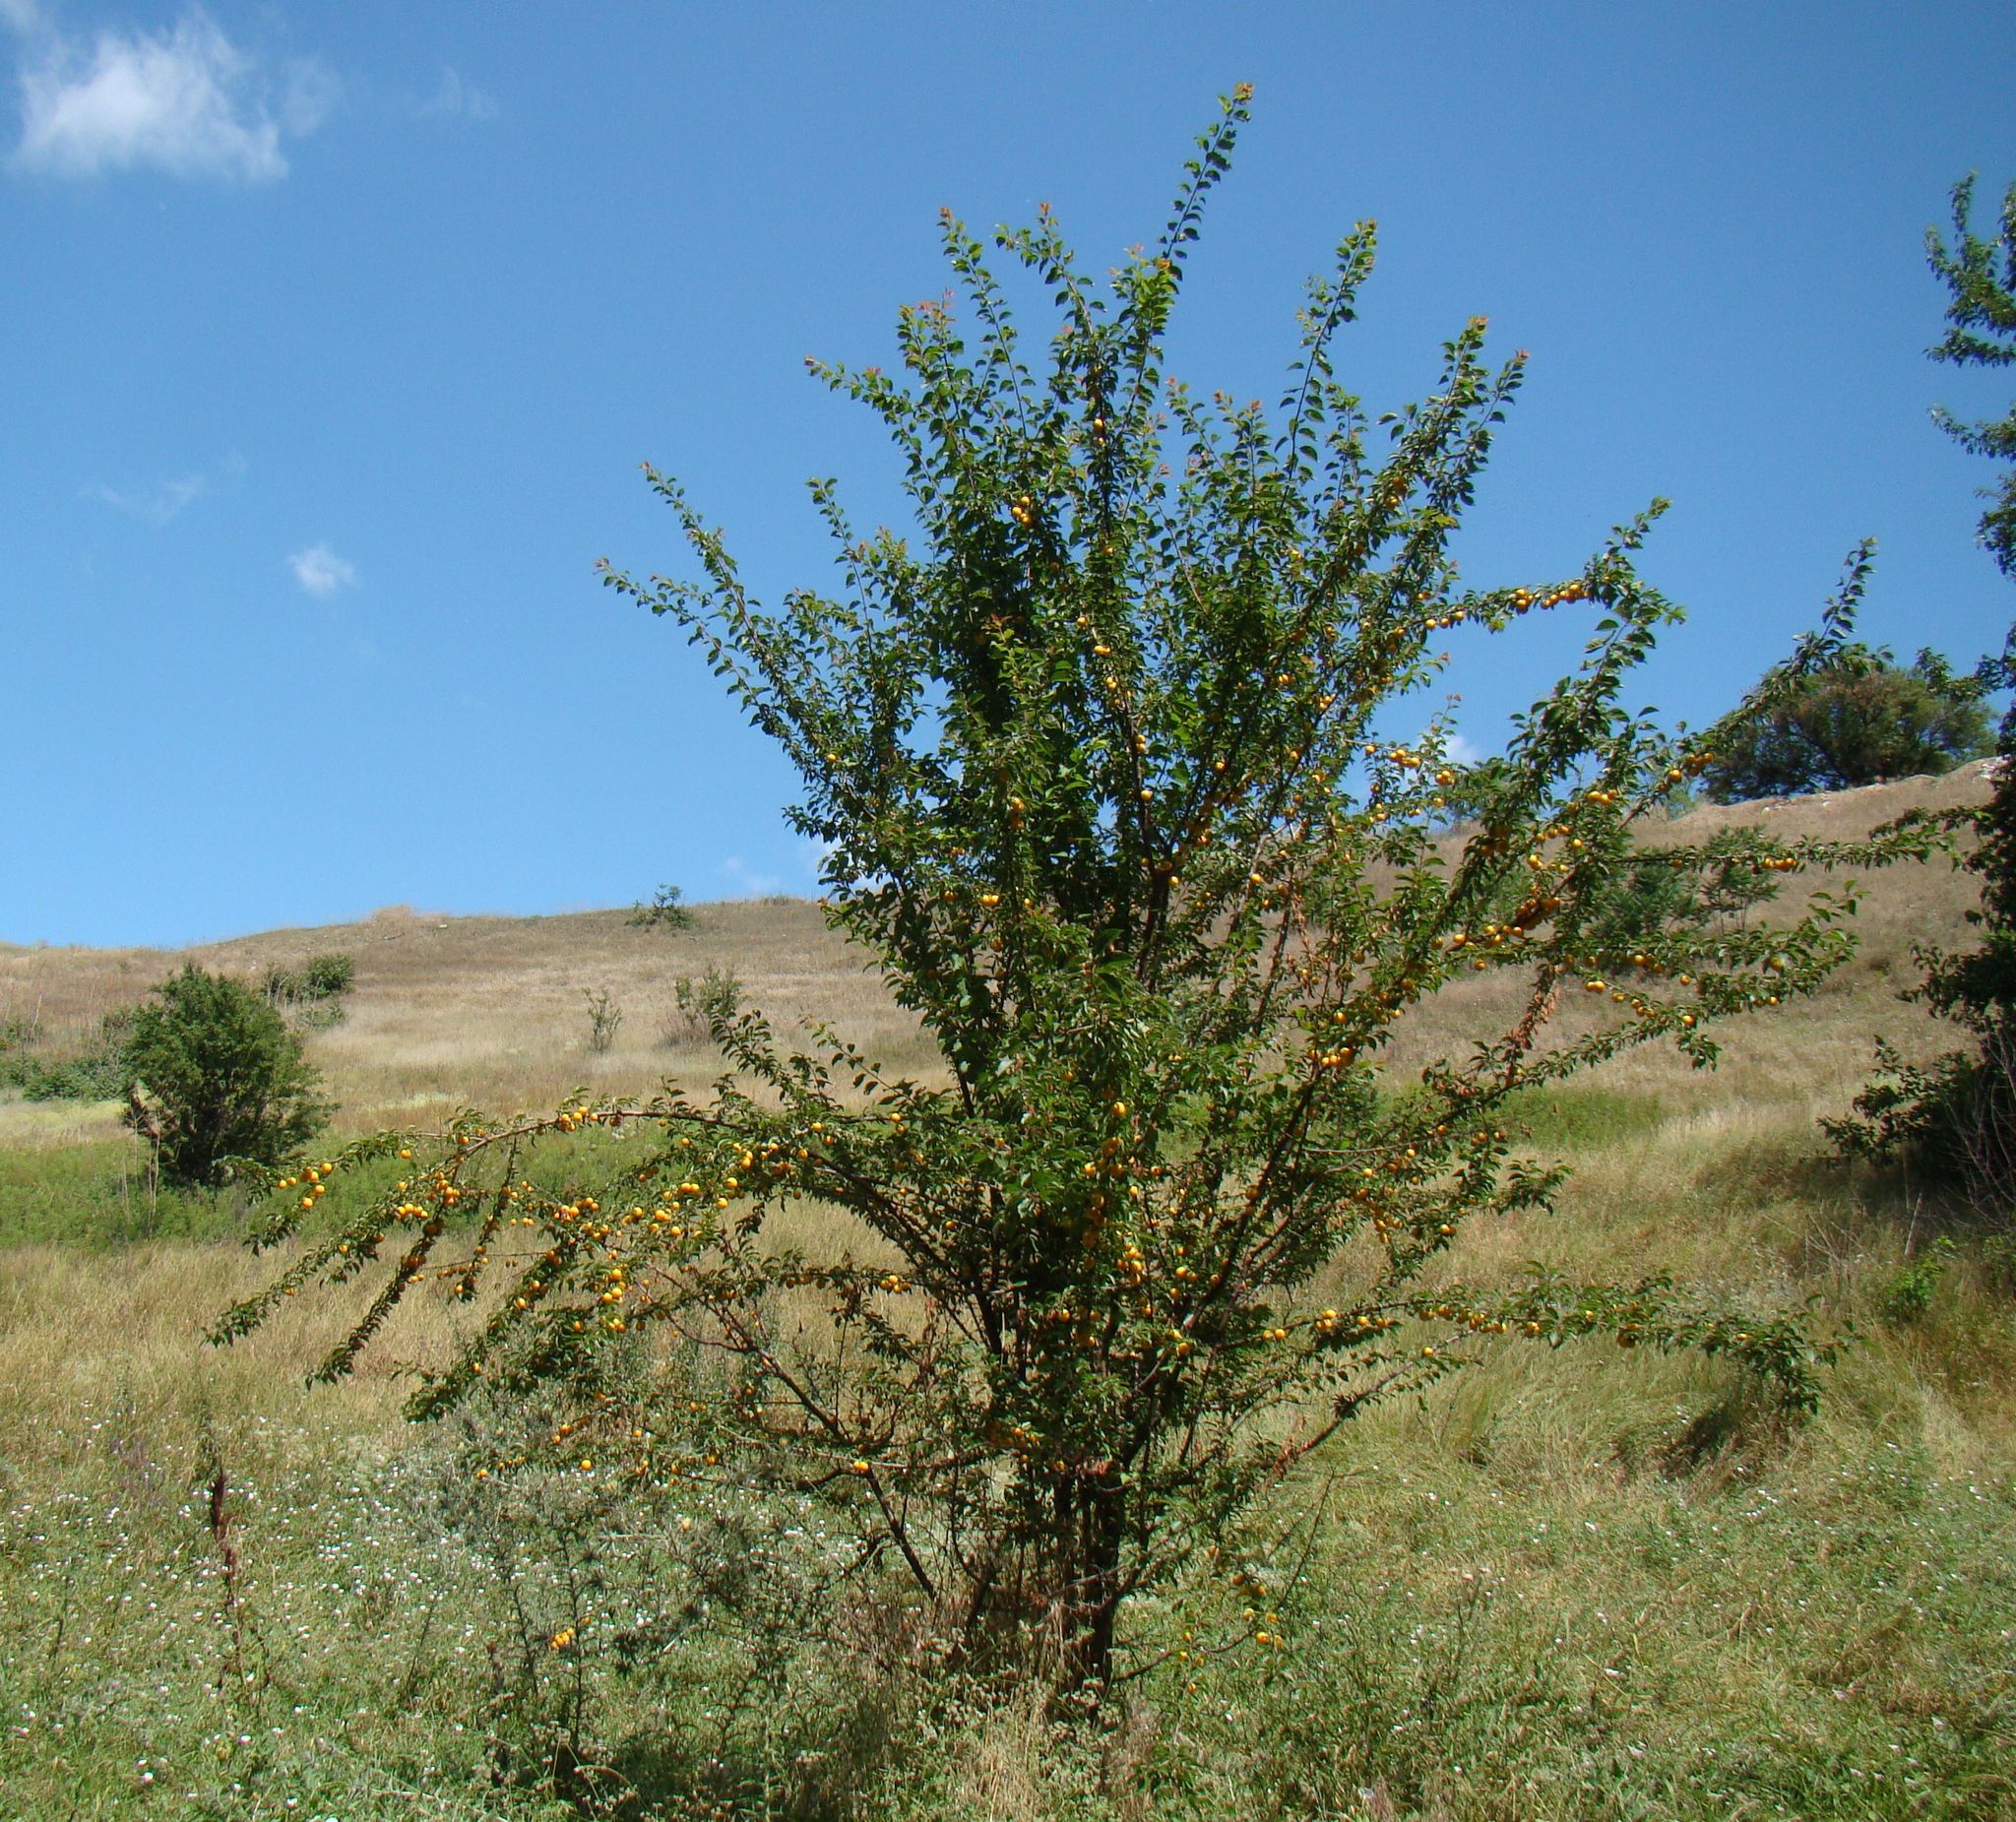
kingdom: Plantae
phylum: Tracheophyta
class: Magnoliopsida
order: Rosales
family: Rosaceae
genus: Prunus
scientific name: Prunus cerasifera
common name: Cherry plum
